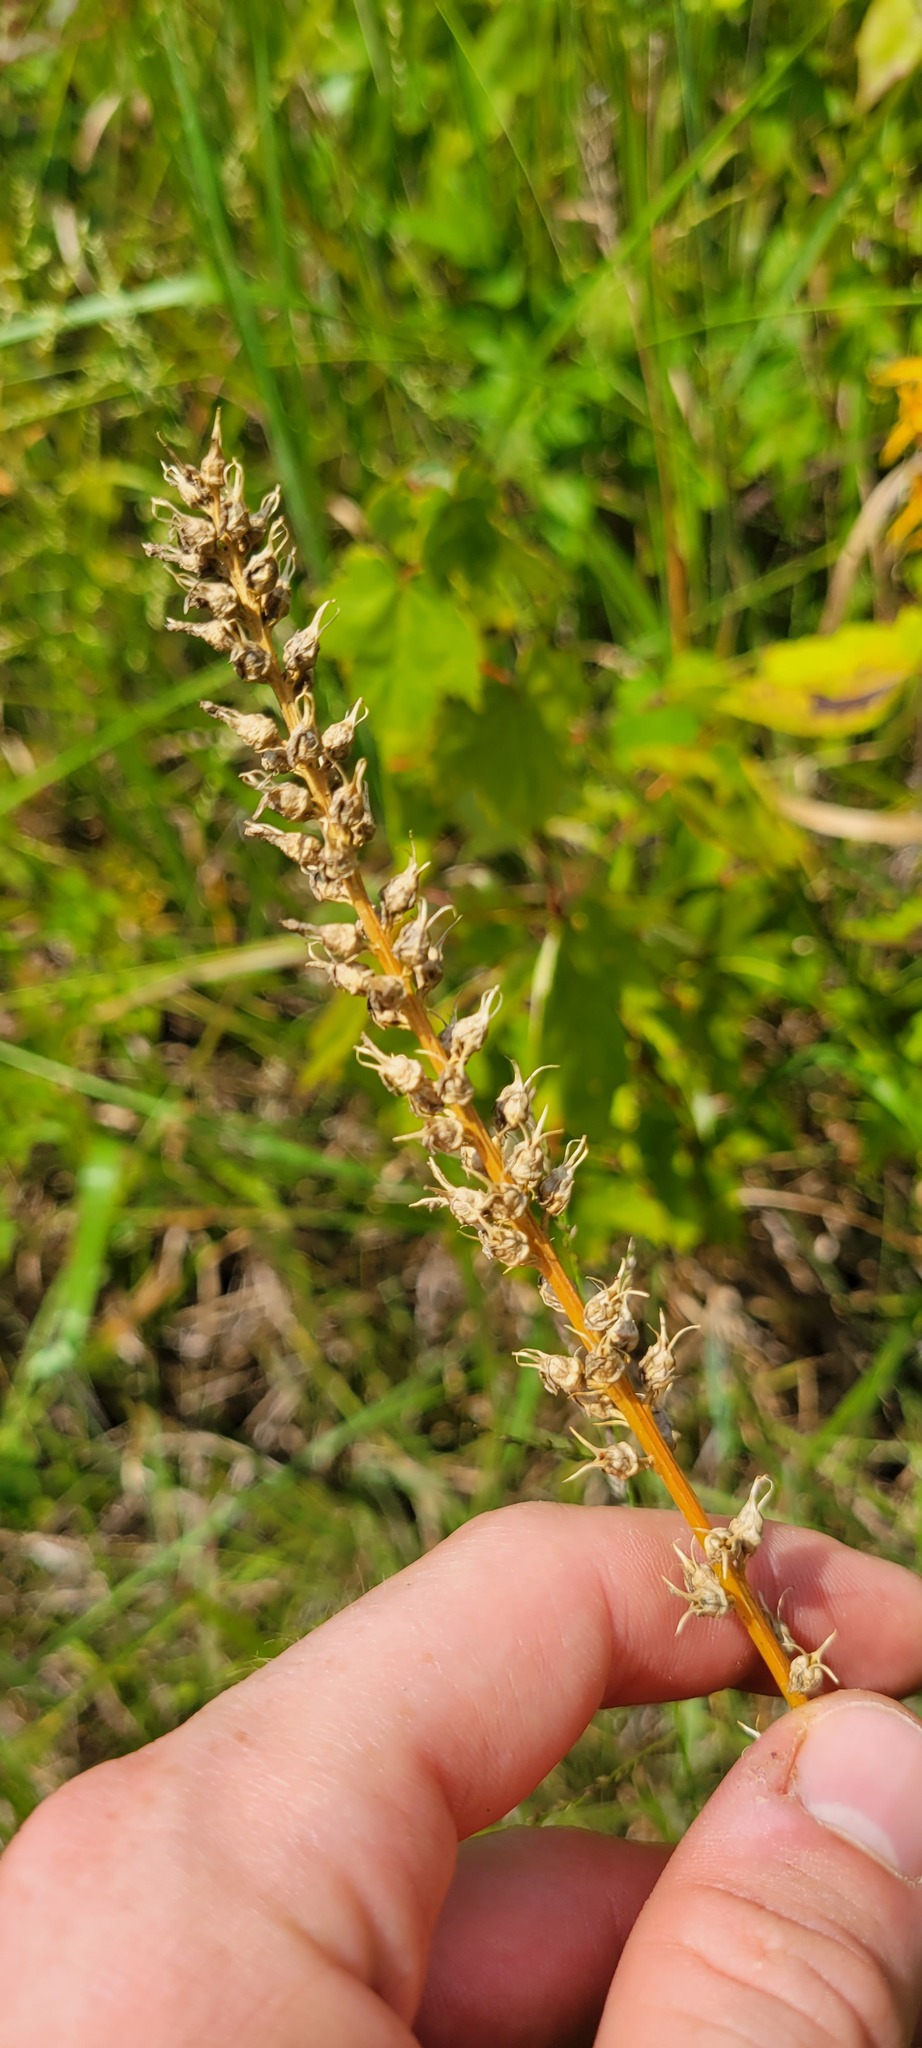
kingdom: Plantae
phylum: Tracheophyta
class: Liliopsida
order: Dioscoreales
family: Nartheciaceae
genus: Aletris
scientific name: Aletris farinosa
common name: Colicroot
